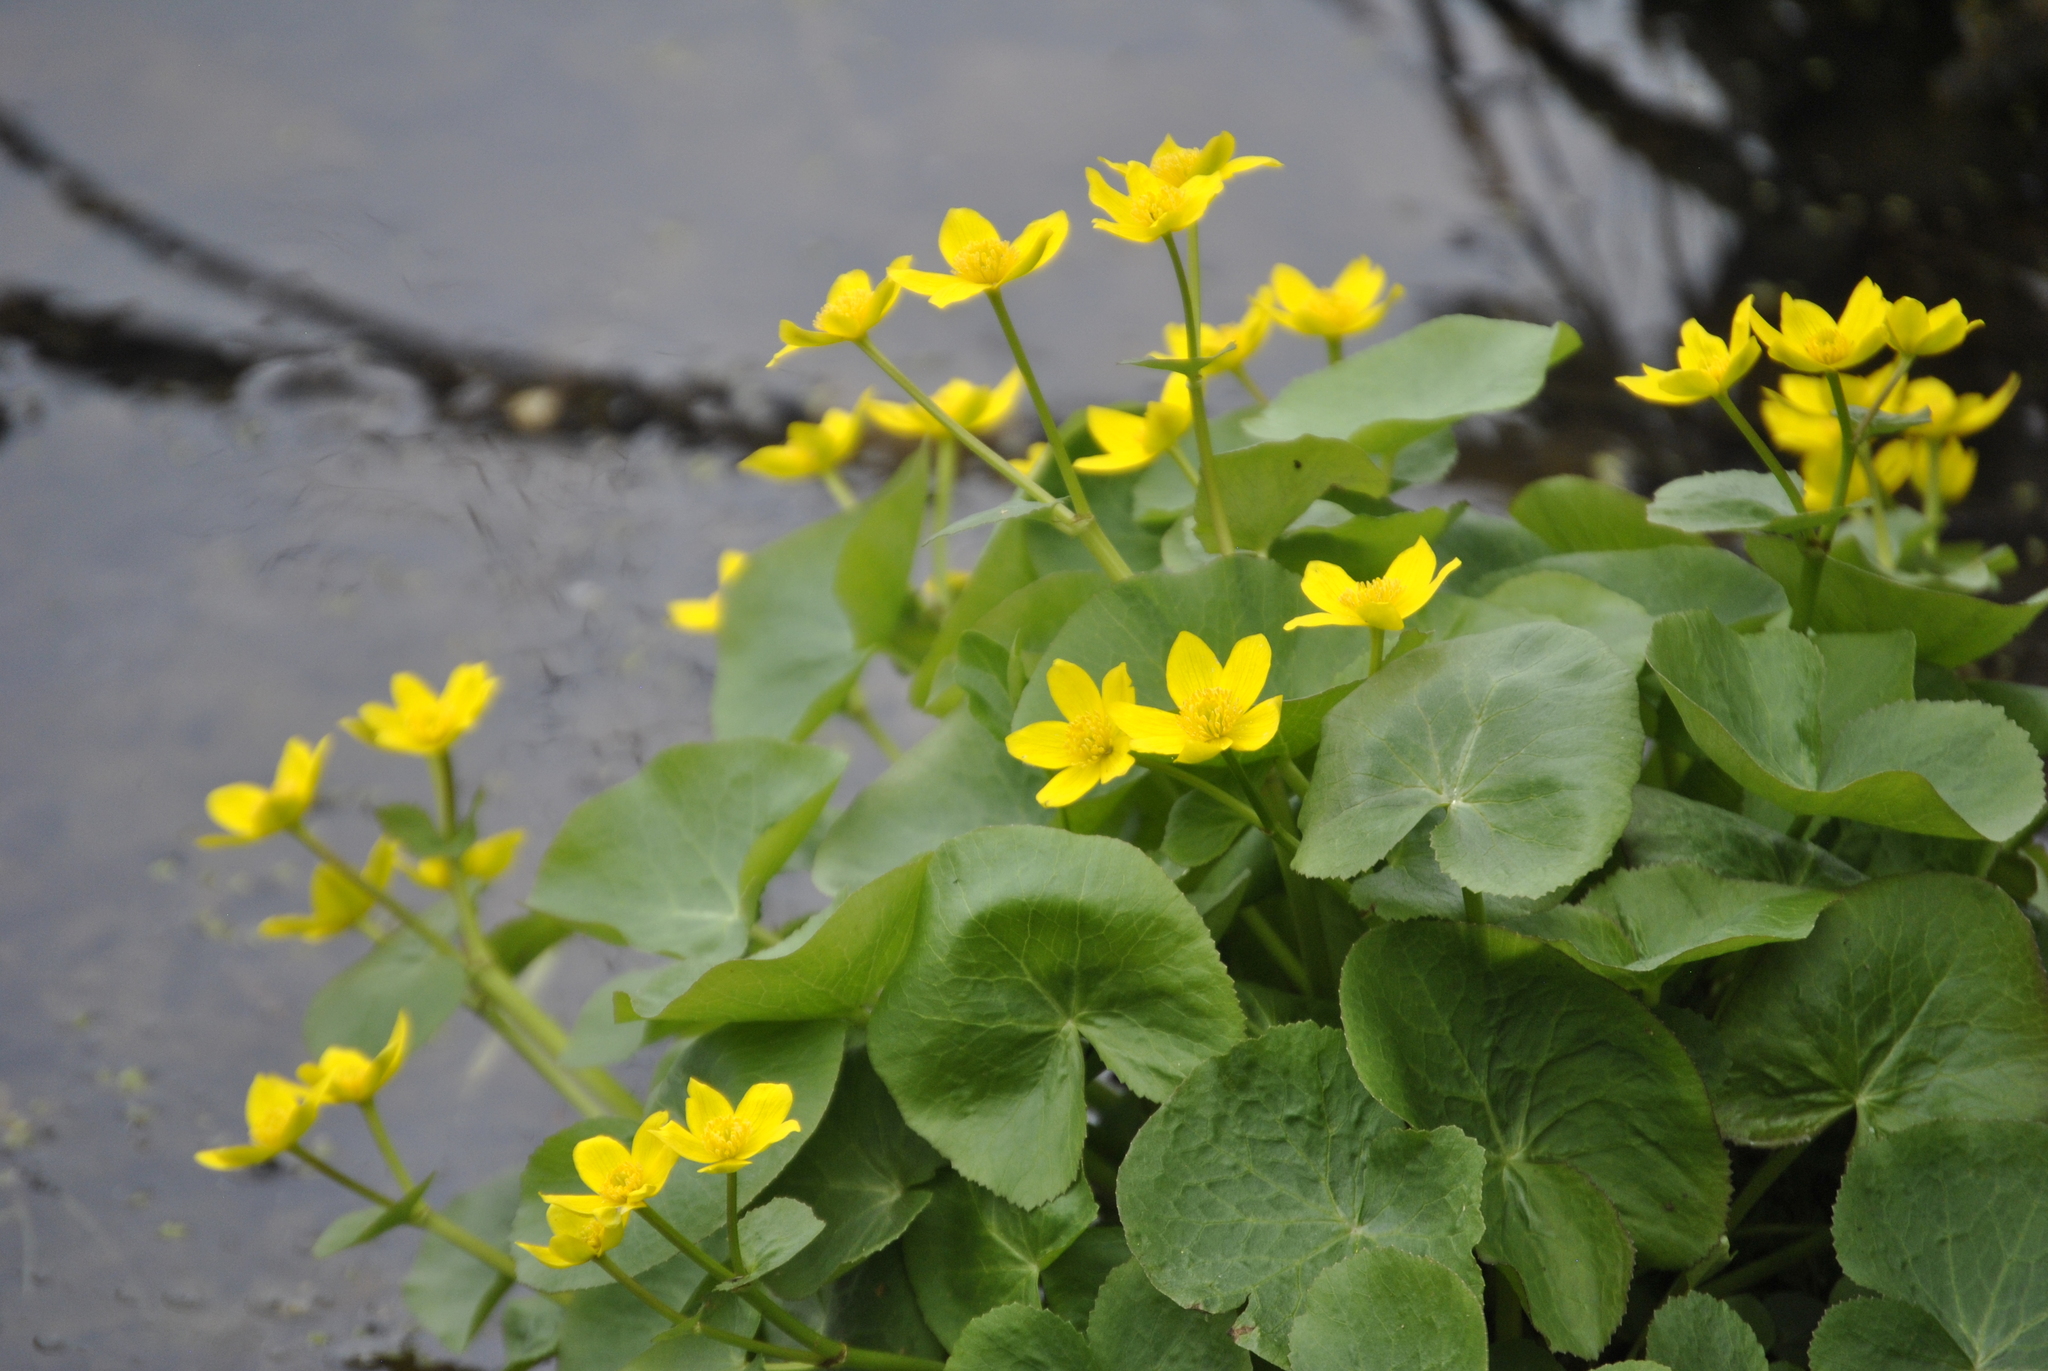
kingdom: Plantae
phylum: Tracheophyta
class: Magnoliopsida
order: Ranunculales
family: Ranunculaceae
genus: Caltha
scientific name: Caltha palustris
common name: Marsh marigold
